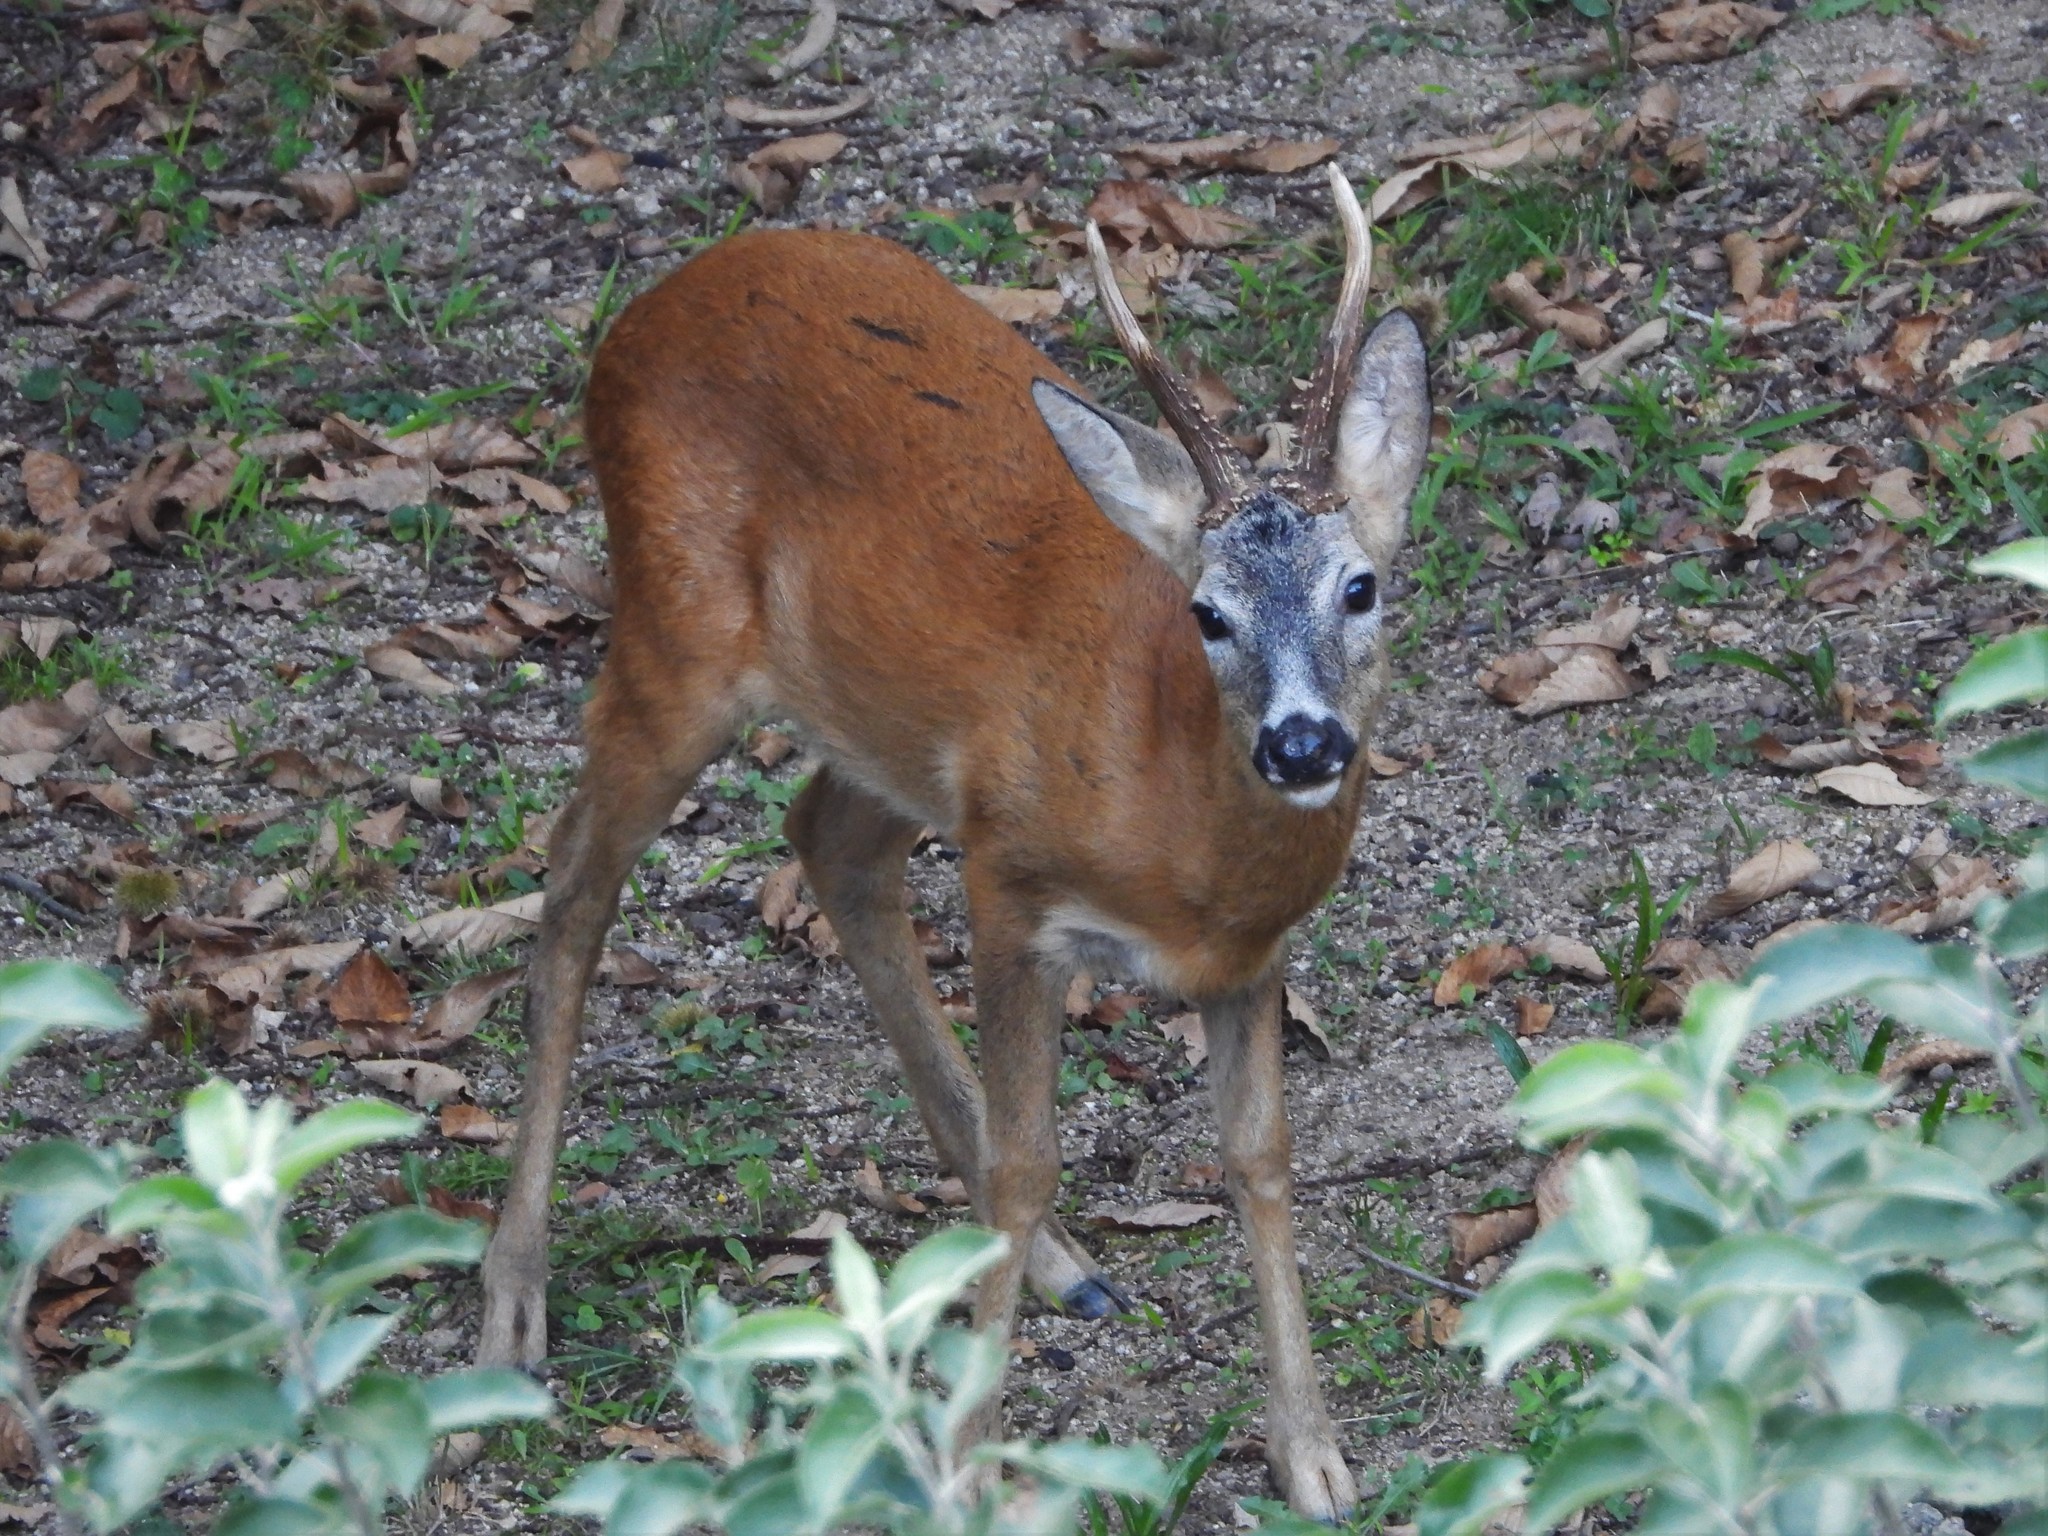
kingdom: Animalia
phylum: Chordata
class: Mammalia
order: Artiodactyla
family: Cervidae
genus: Capreolus
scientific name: Capreolus capreolus
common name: Western roe deer
